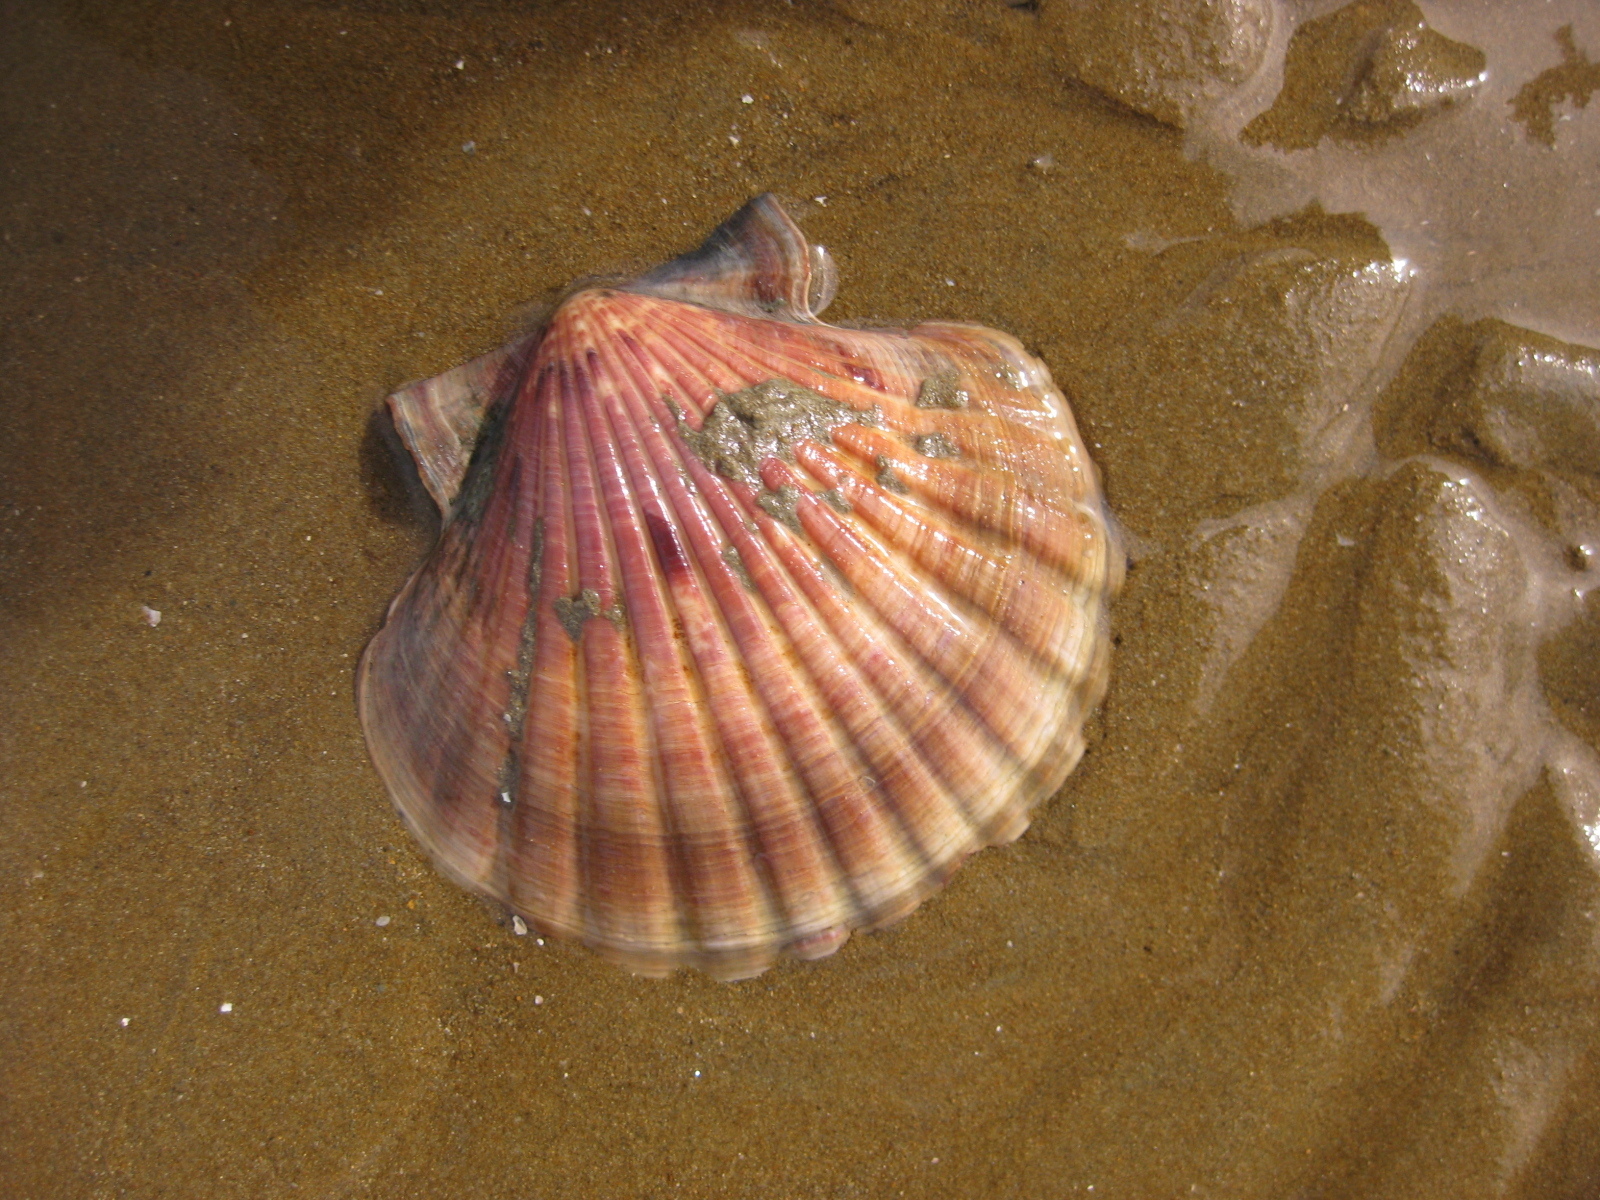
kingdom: Animalia
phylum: Mollusca
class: Bivalvia
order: Pectinida
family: Pectinidae
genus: Pecten
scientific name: Pecten novaezelandiae
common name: New zealand scallop
